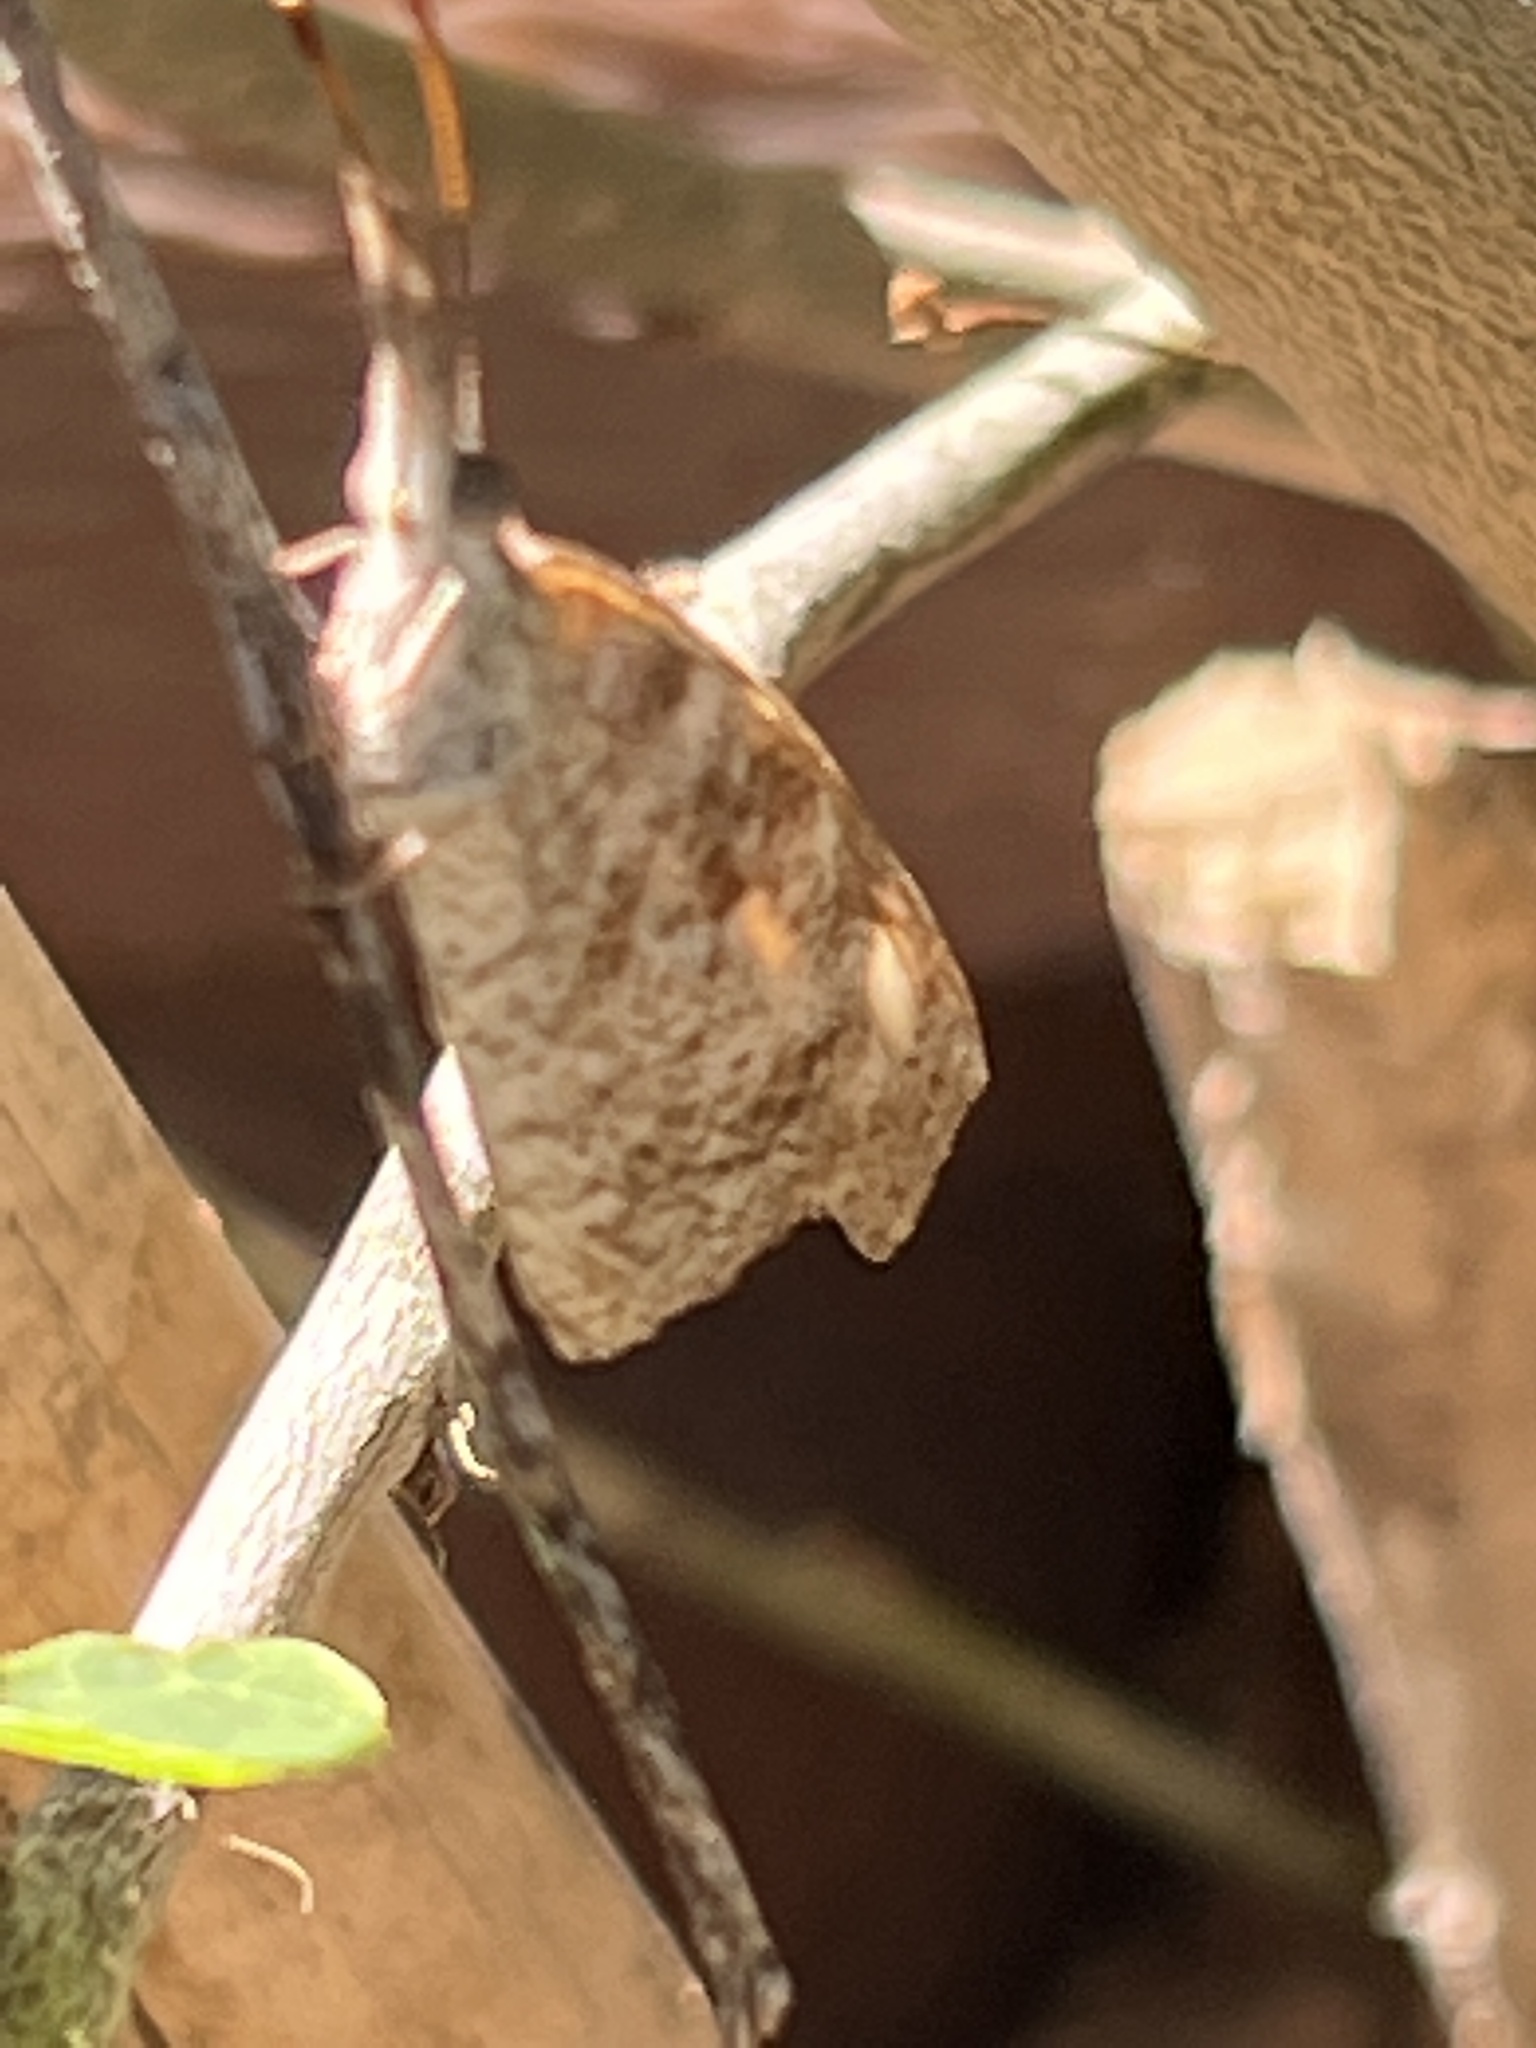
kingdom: Animalia
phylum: Arthropoda
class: Insecta
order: Lepidoptera
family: Nymphalidae
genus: Libytheana
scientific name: Libytheana carinenta
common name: American snout
